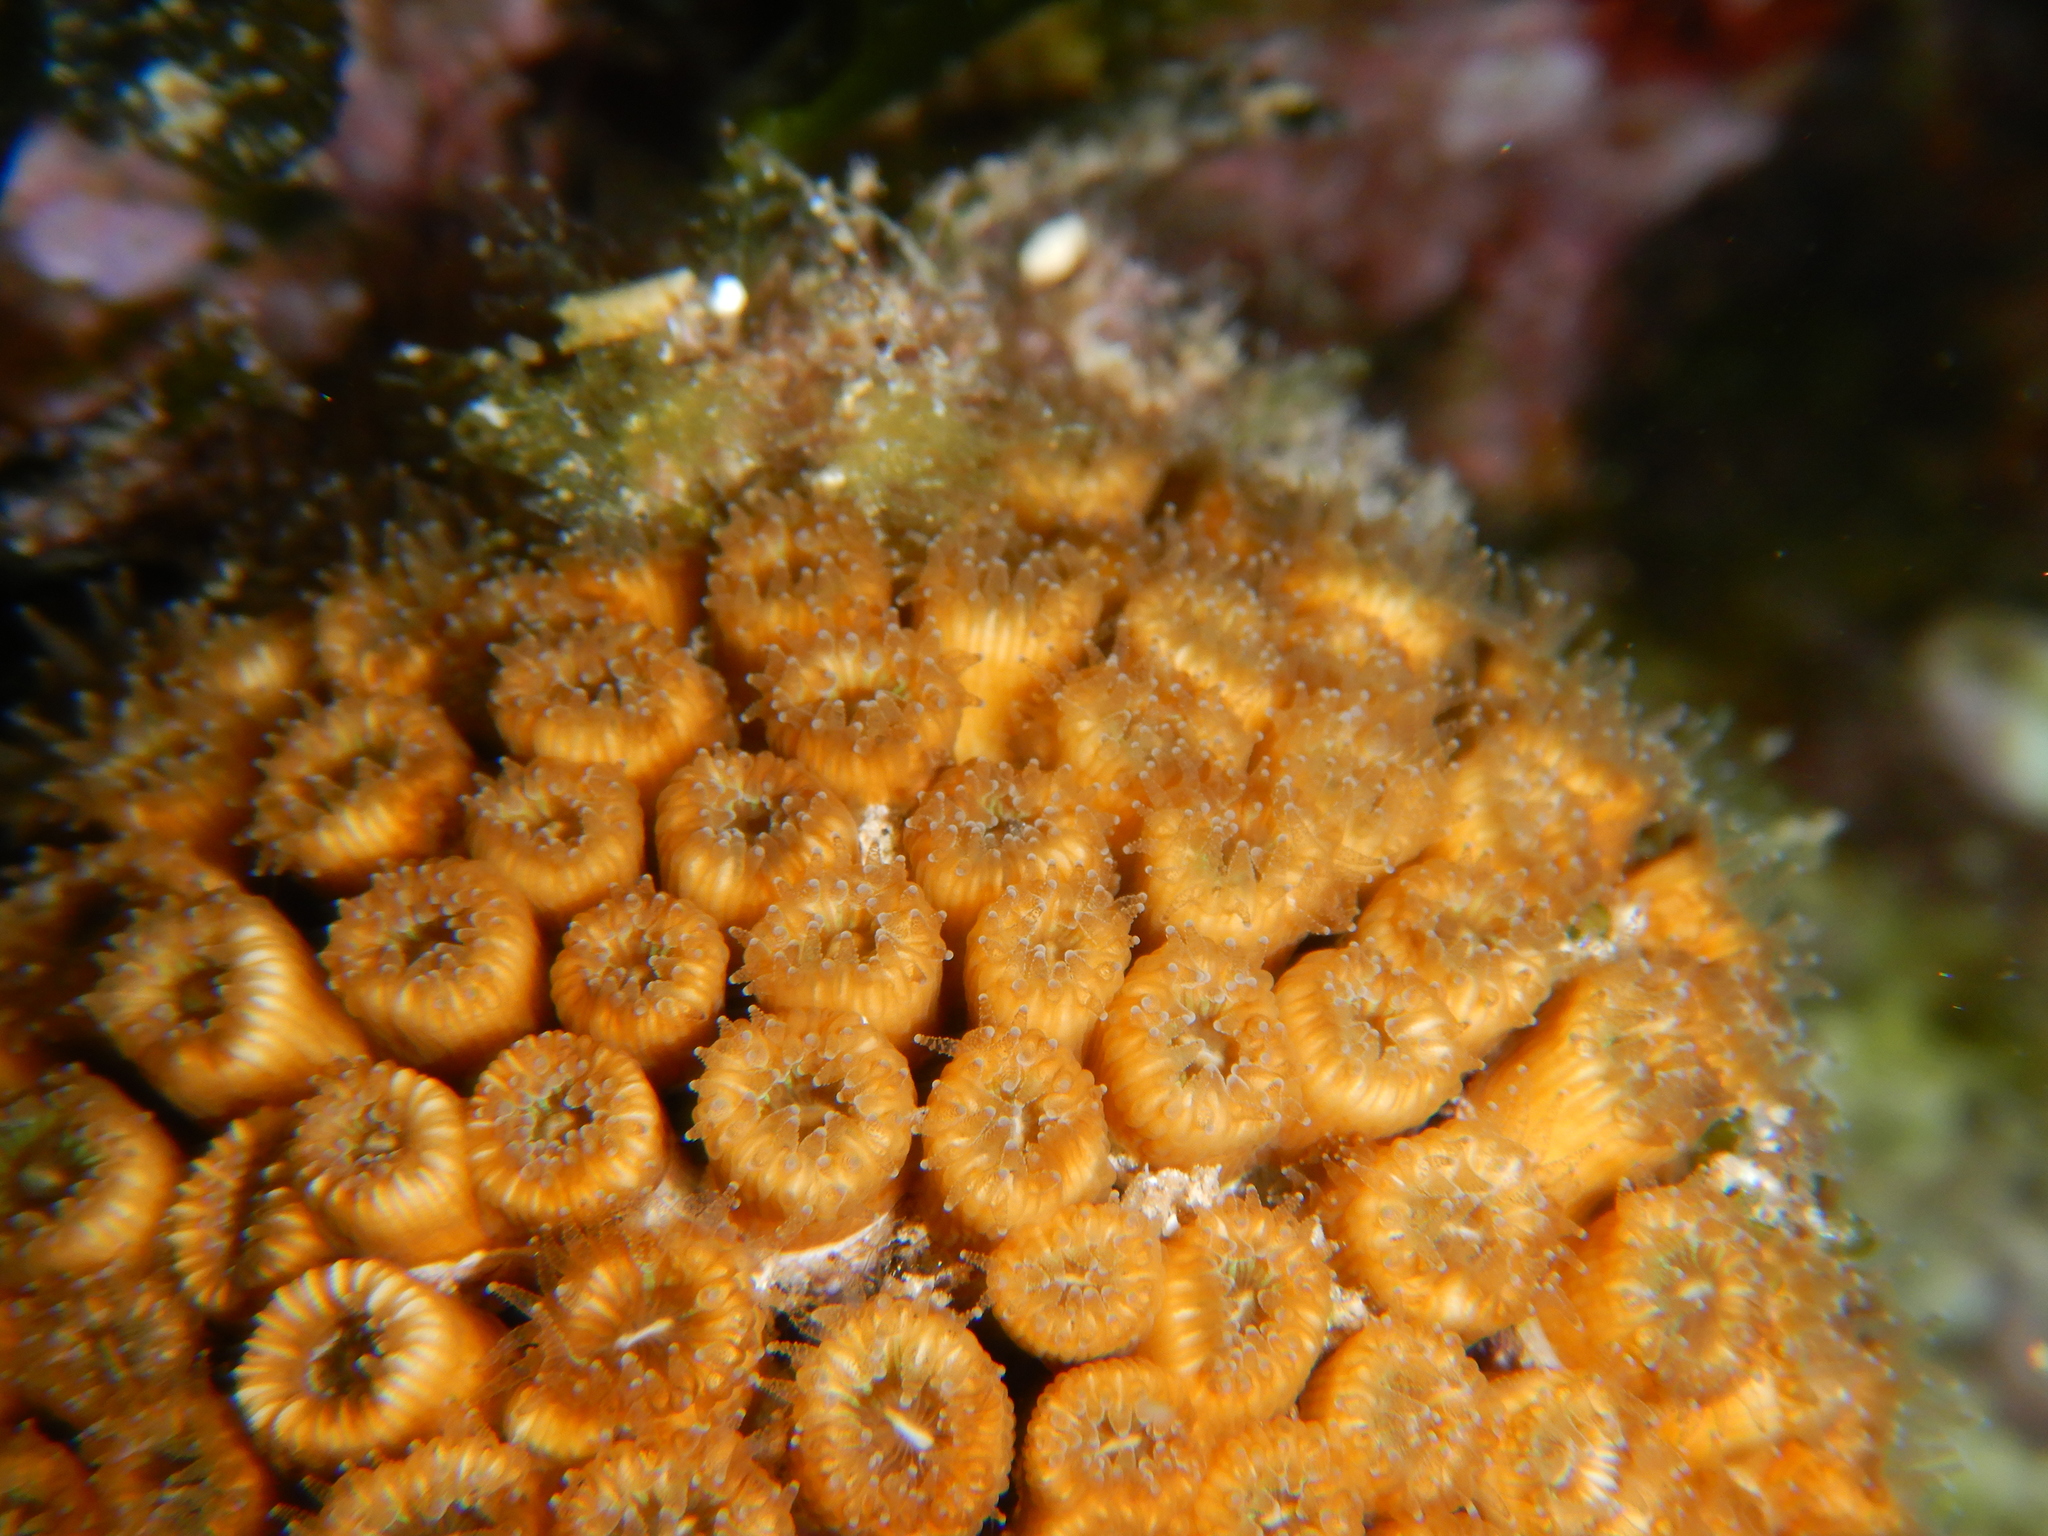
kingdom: Animalia
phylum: Cnidaria
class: Anthozoa
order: Scleractinia
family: Cladocoridae
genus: Cladocora
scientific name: Cladocora caespitosa
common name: Cladocora
